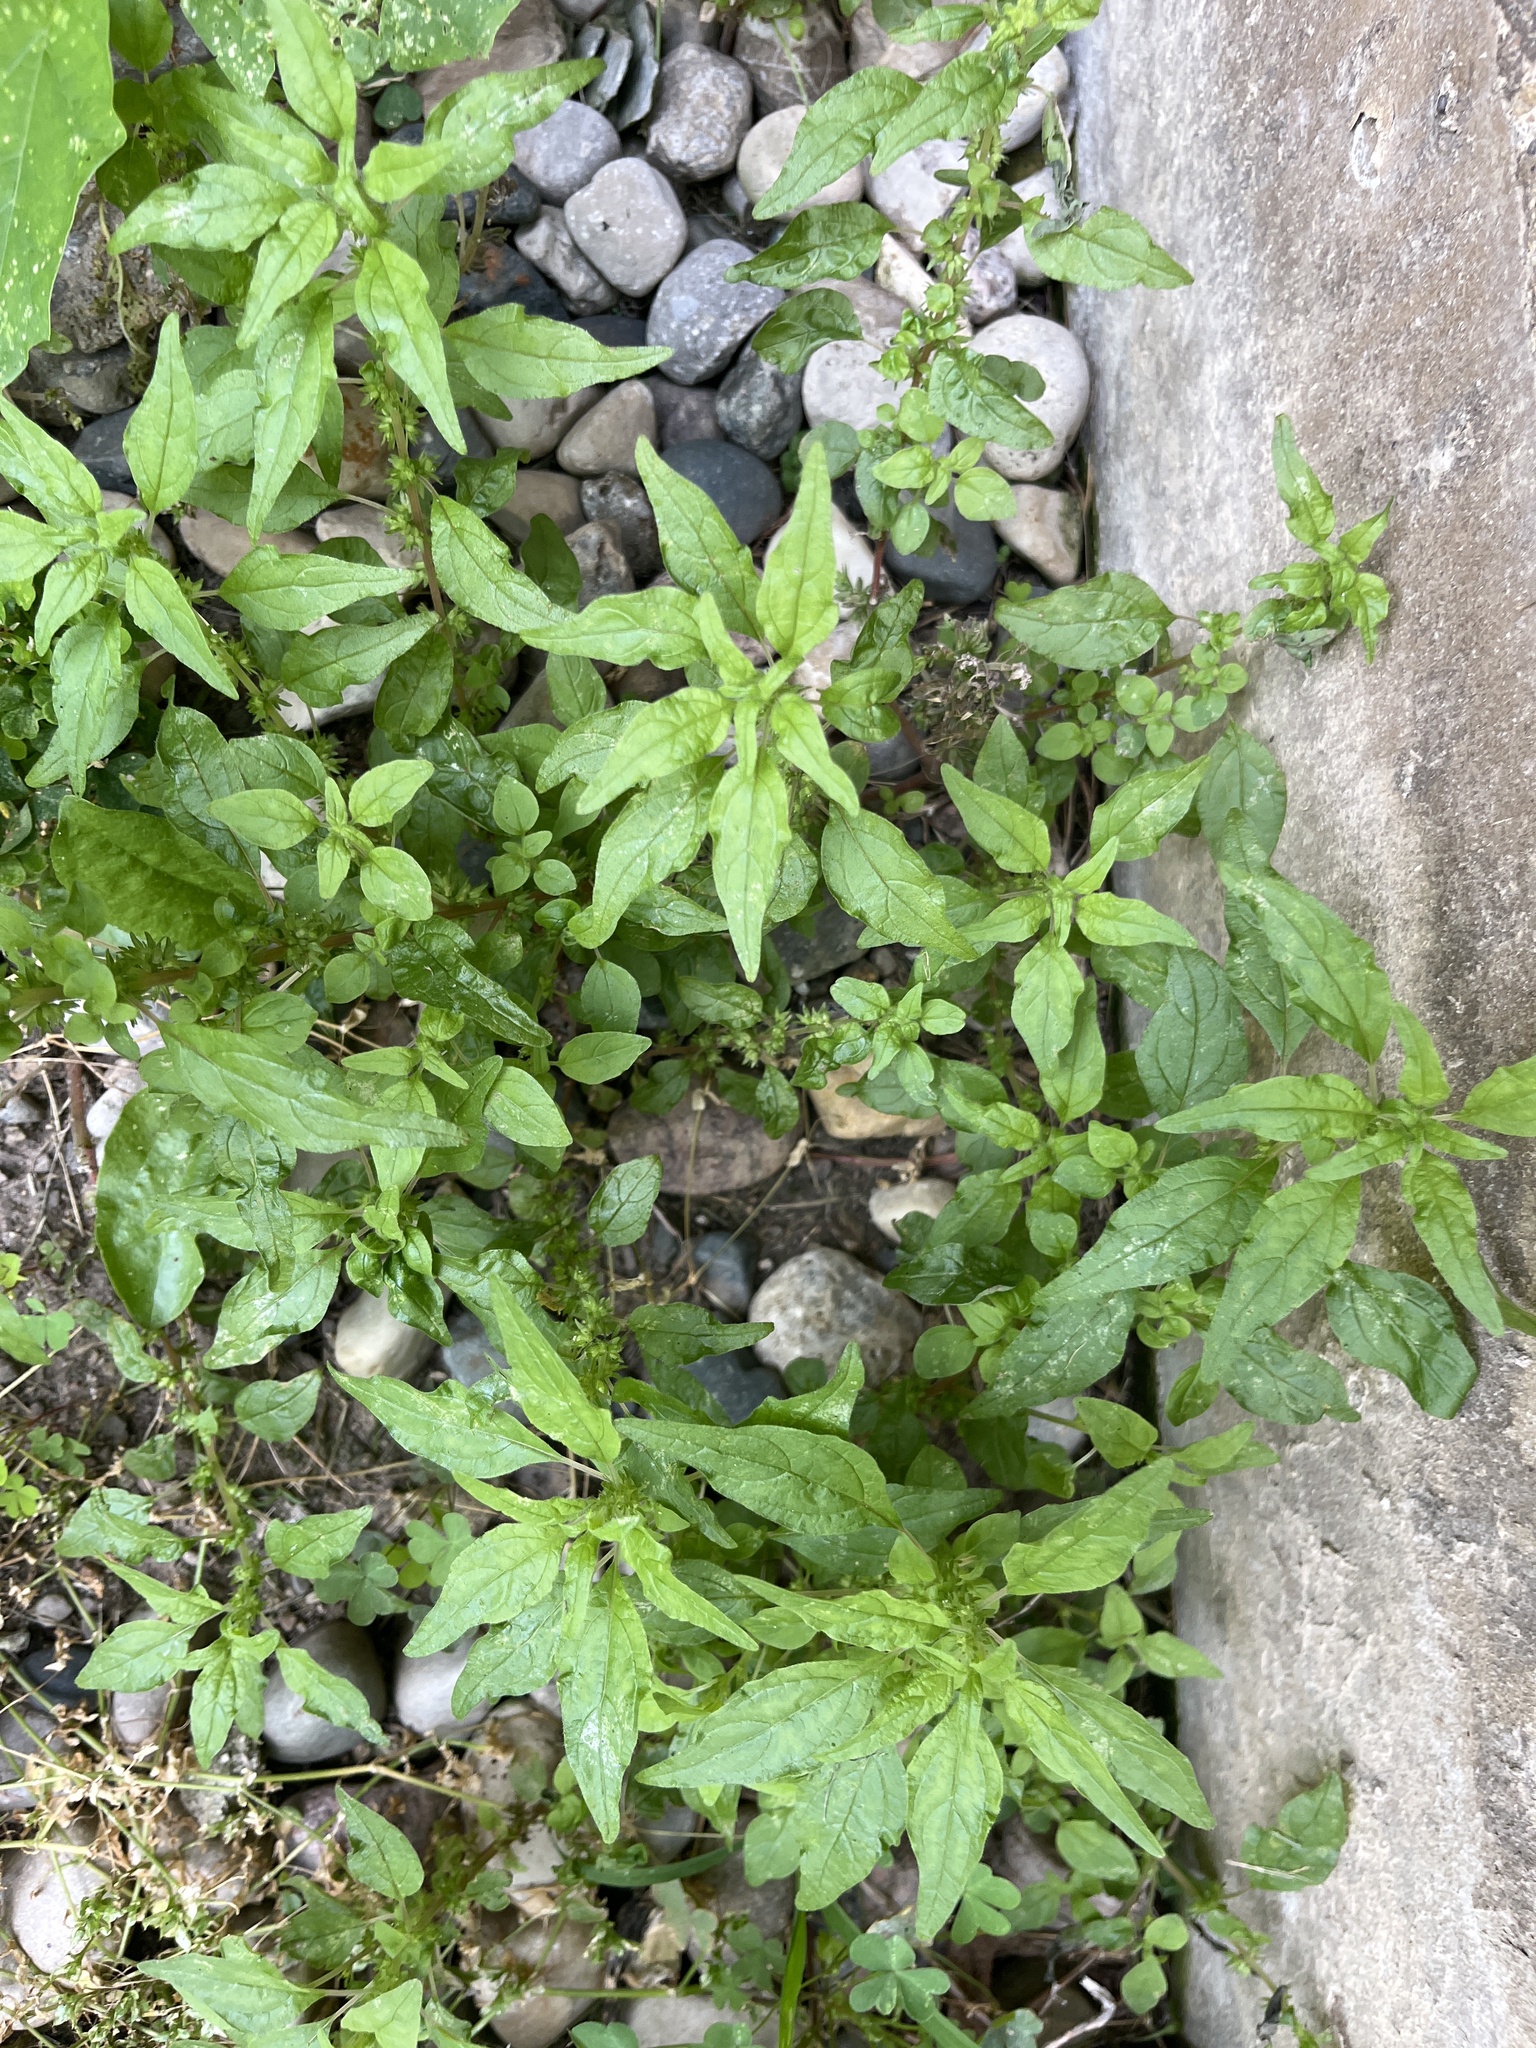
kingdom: Plantae
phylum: Tracheophyta
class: Magnoliopsida
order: Rosales
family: Urticaceae
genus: Parietaria
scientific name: Parietaria pensylvanica
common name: Pennsylvania pellitory
